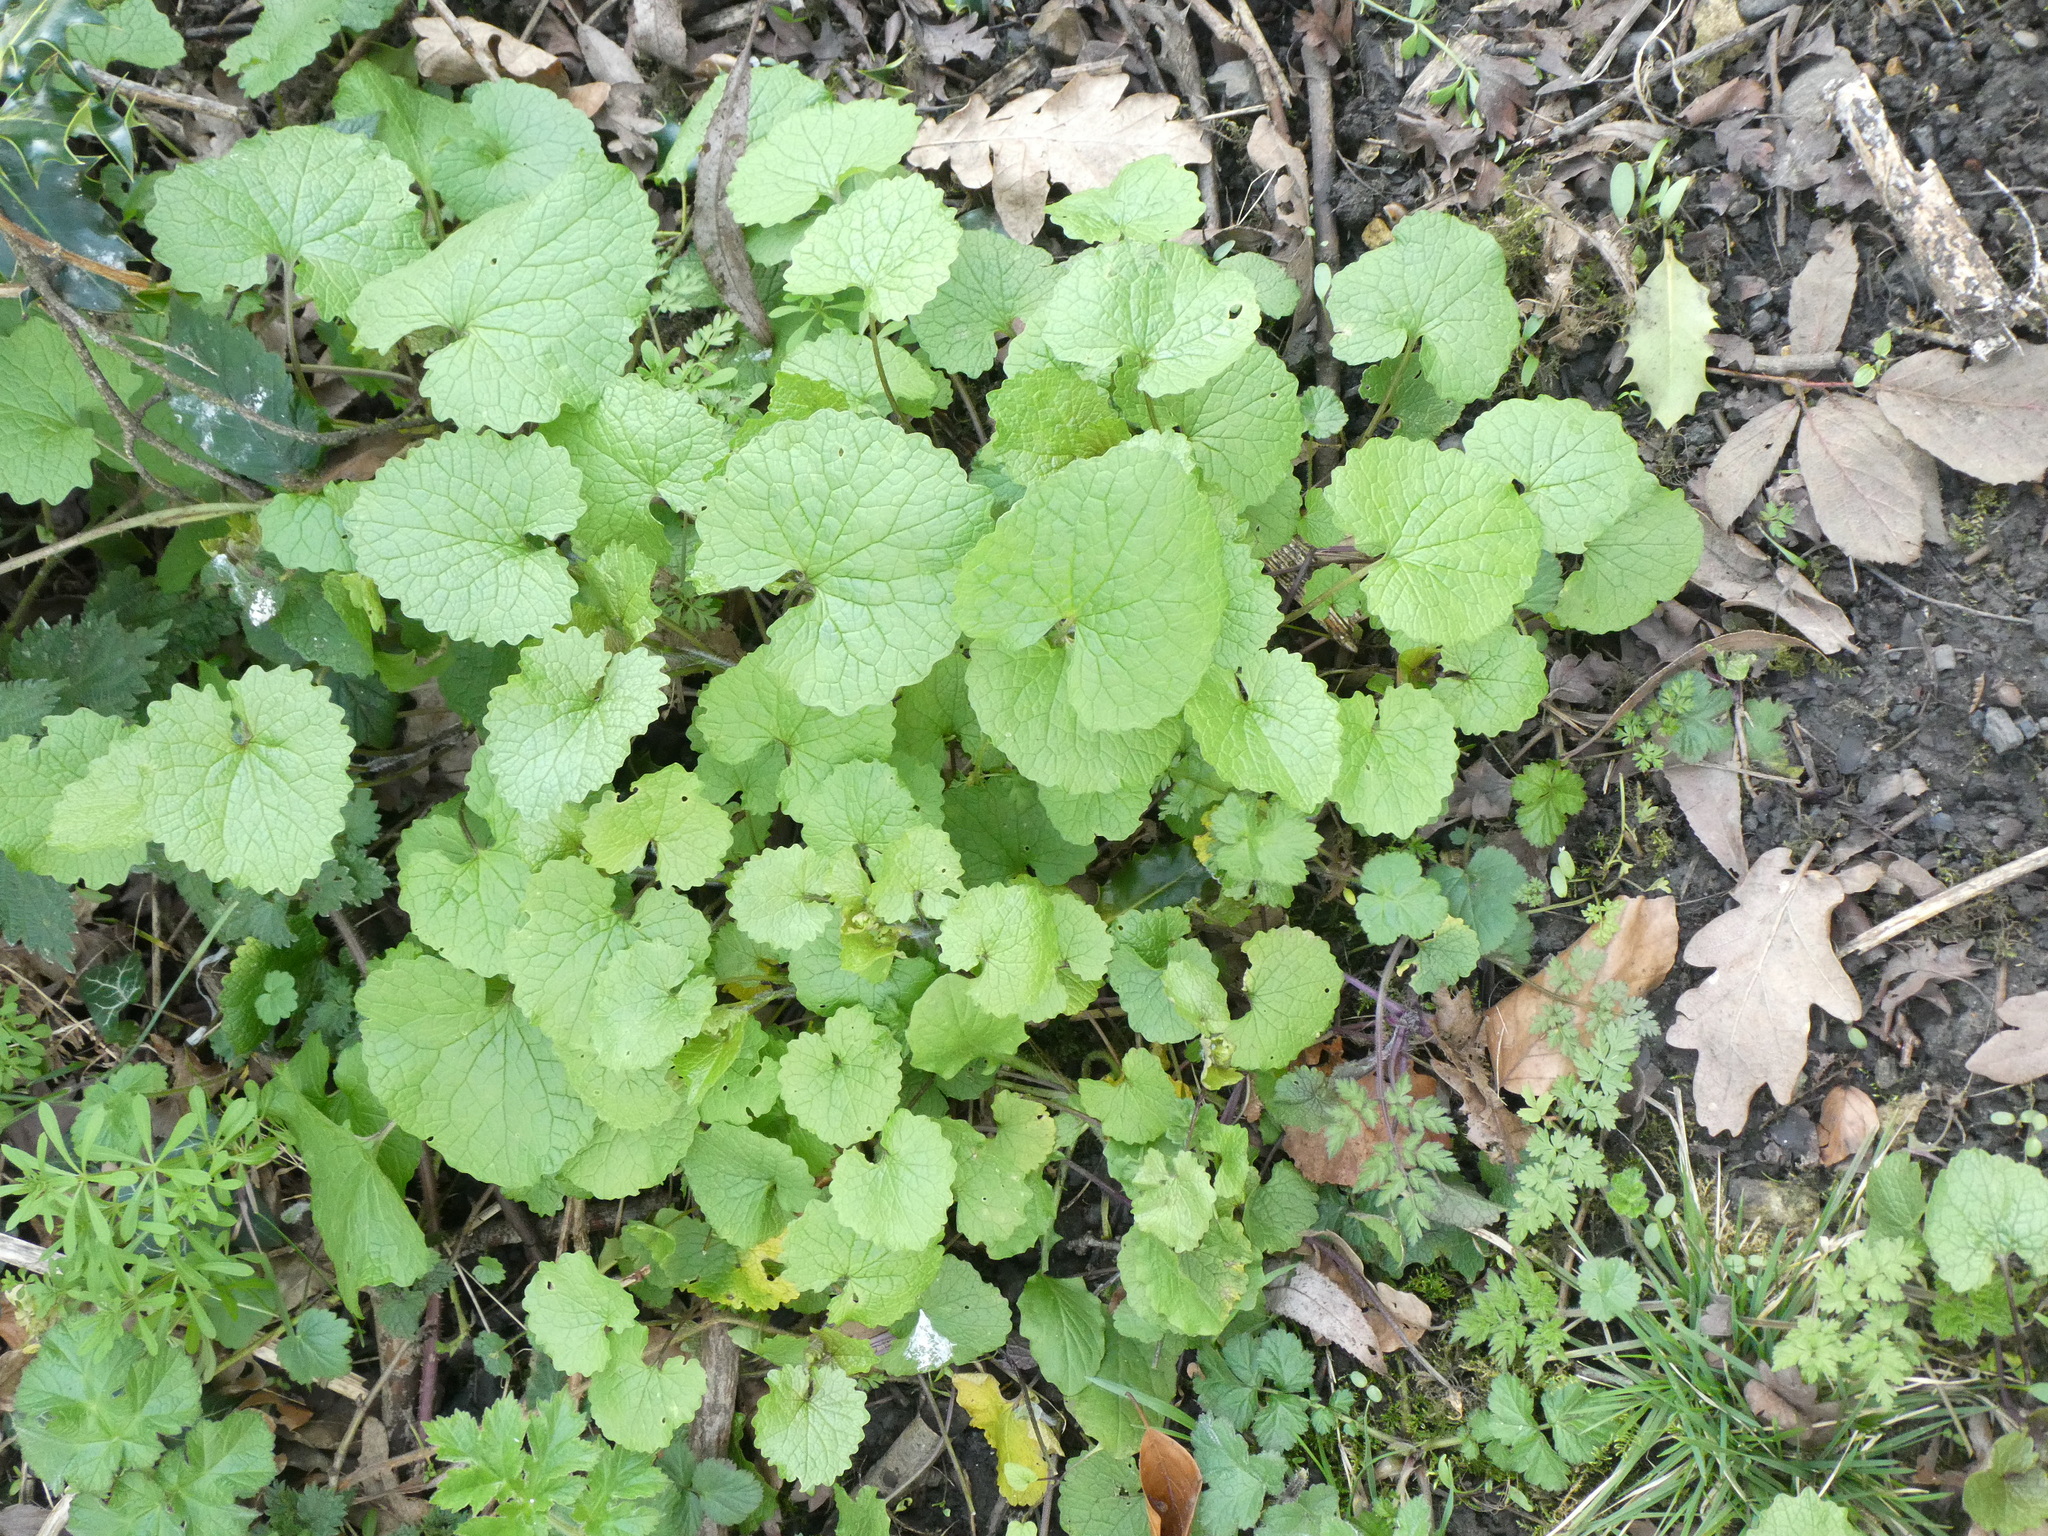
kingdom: Plantae
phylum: Tracheophyta
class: Magnoliopsida
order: Brassicales
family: Brassicaceae
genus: Alliaria
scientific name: Alliaria petiolata
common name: Garlic mustard
